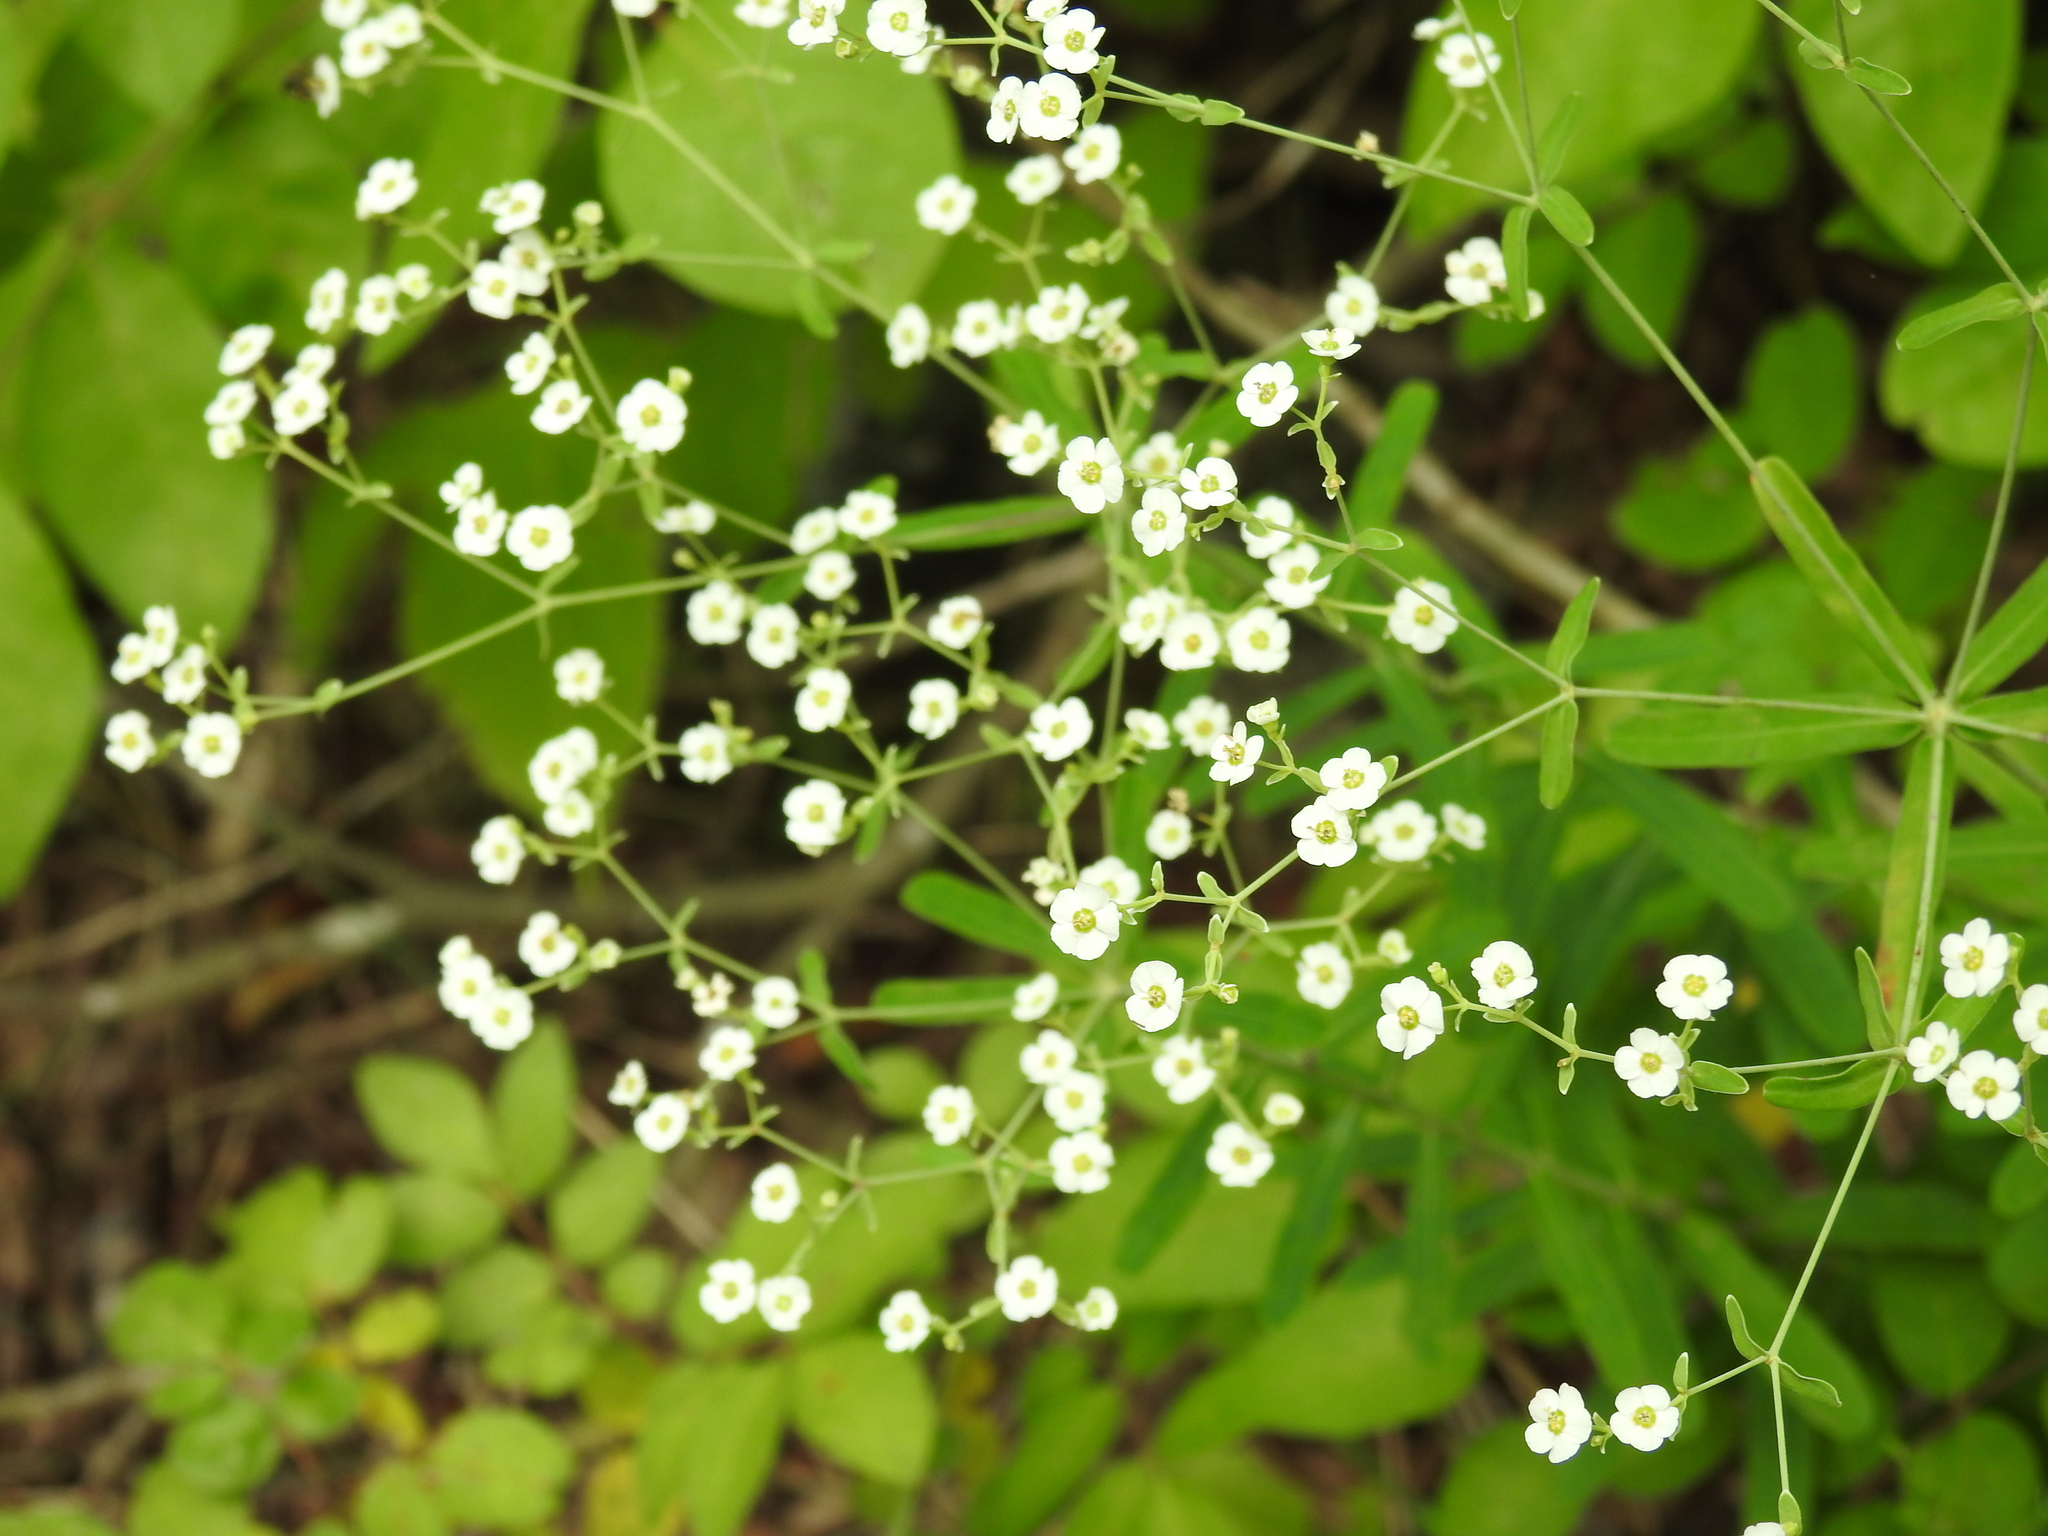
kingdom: Plantae
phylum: Tracheophyta
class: Magnoliopsida
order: Malpighiales
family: Euphorbiaceae
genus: Euphorbia
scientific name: Euphorbia corollata
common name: Flowering spurge
